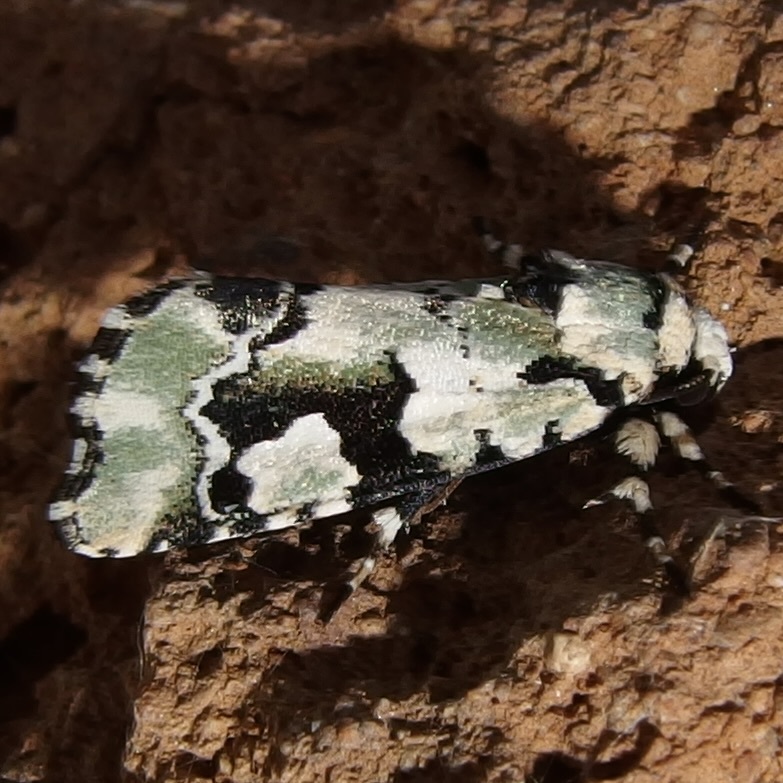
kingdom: Animalia
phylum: Arthropoda
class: Insecta
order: Lepidoptera
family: Noctuidae
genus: Emarginea
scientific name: Emarginea percara
